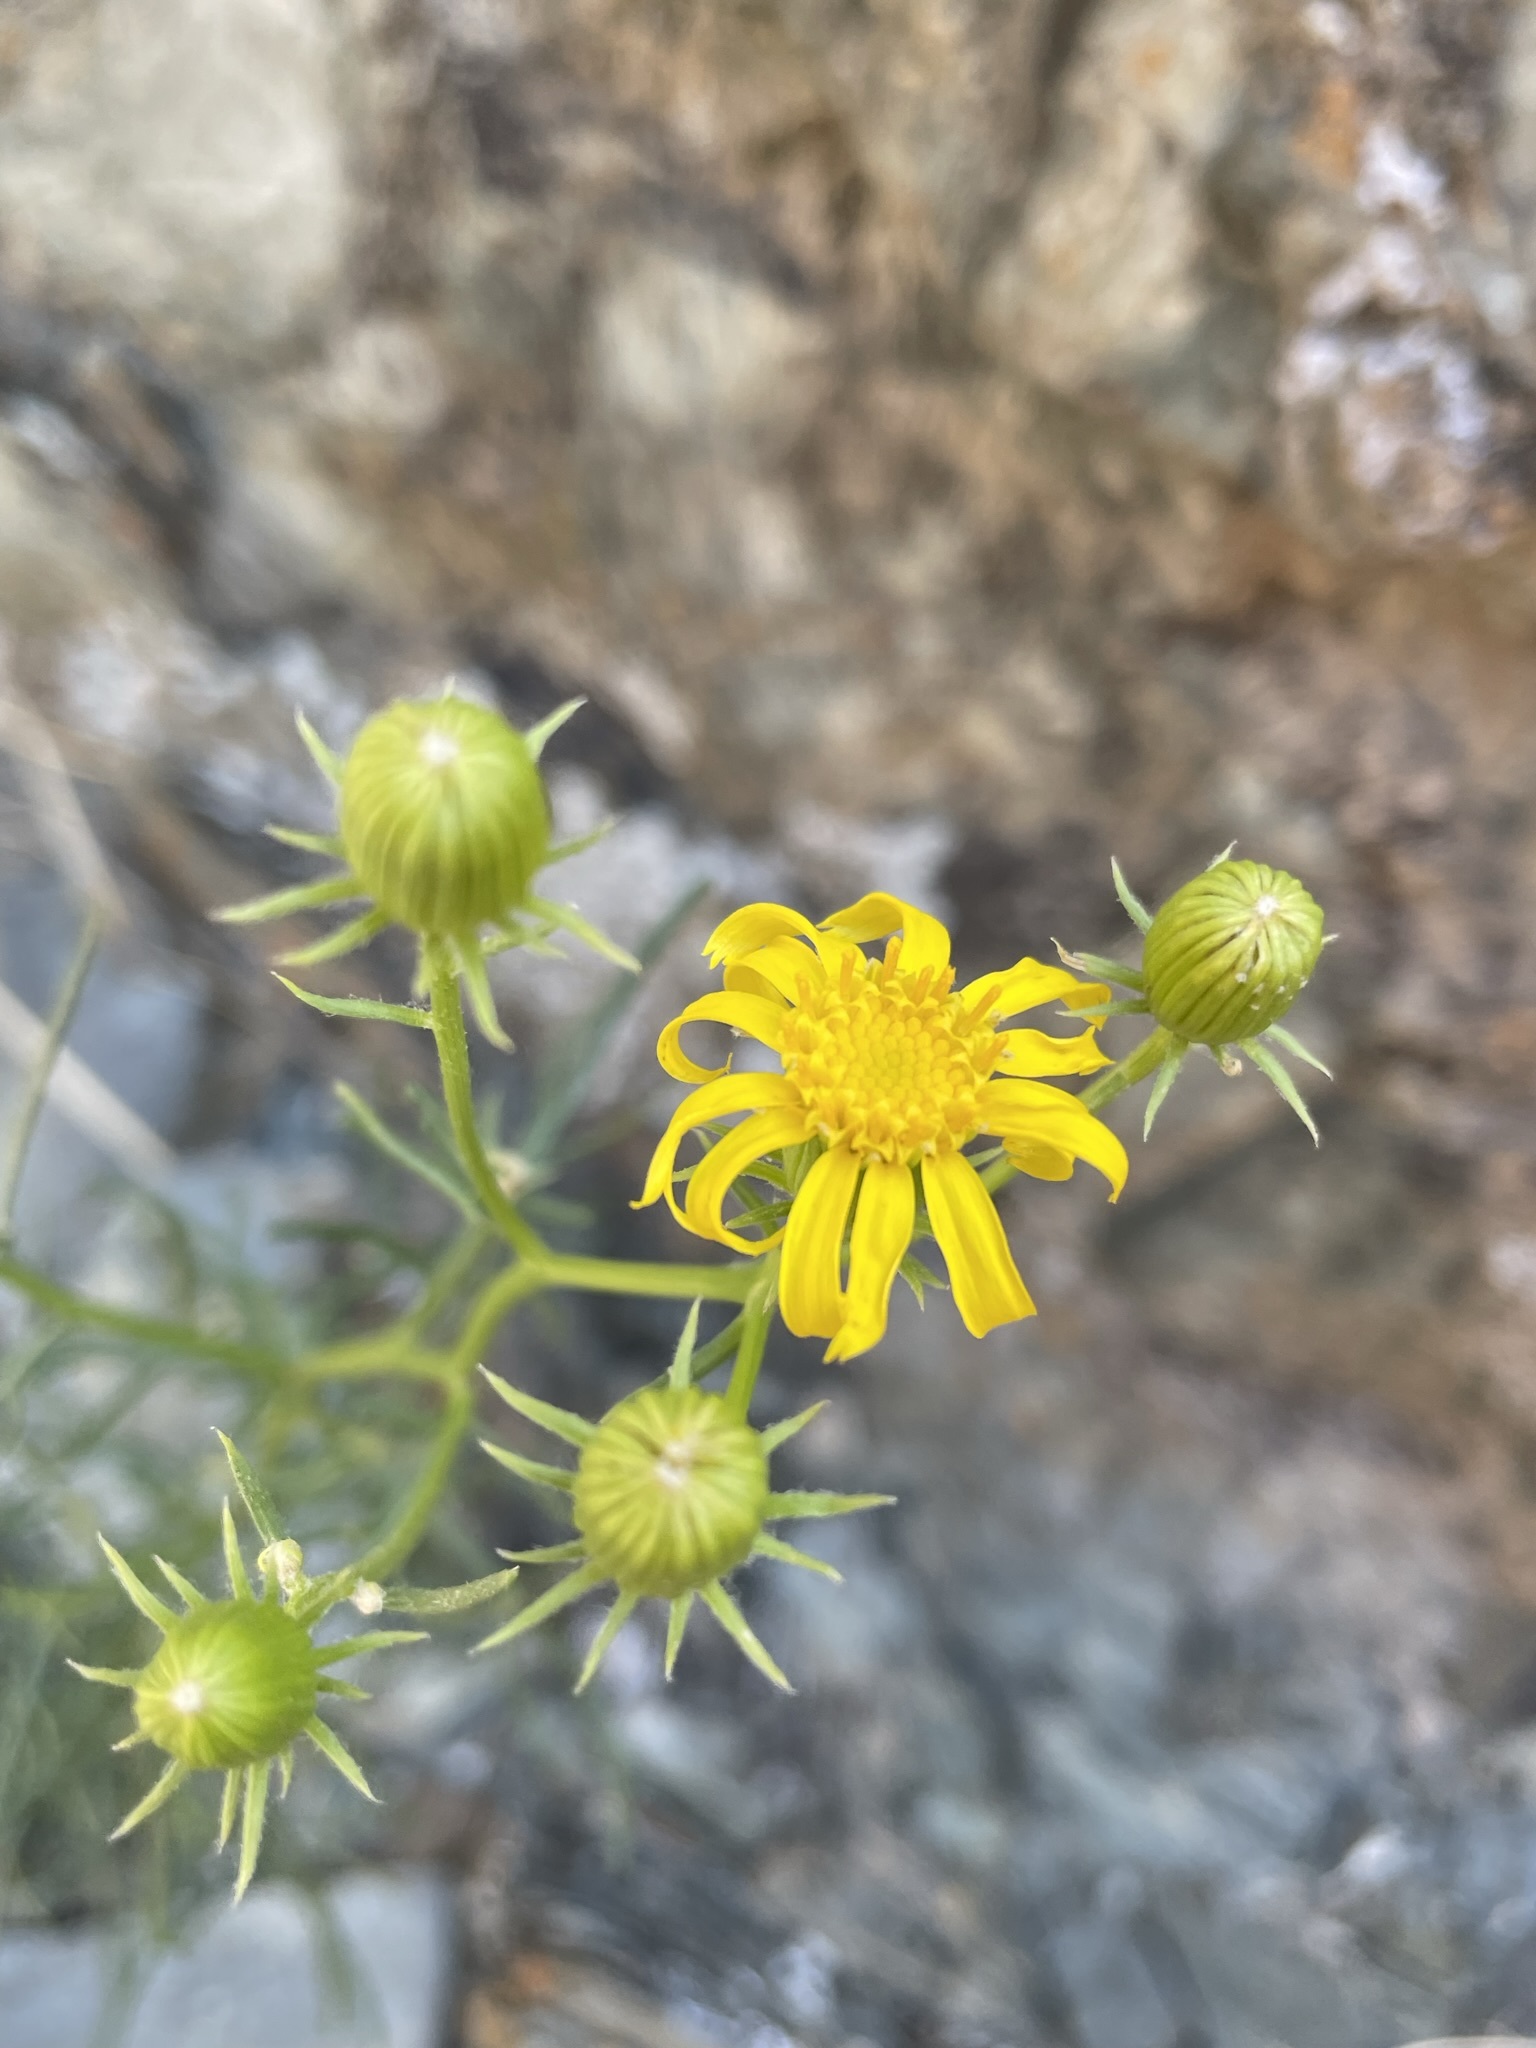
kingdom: Plantae
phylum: Tracheophyta
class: Magnoliopsida
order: Asterales
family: Asteraceae
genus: Senecio
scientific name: Senecio flaccidus
